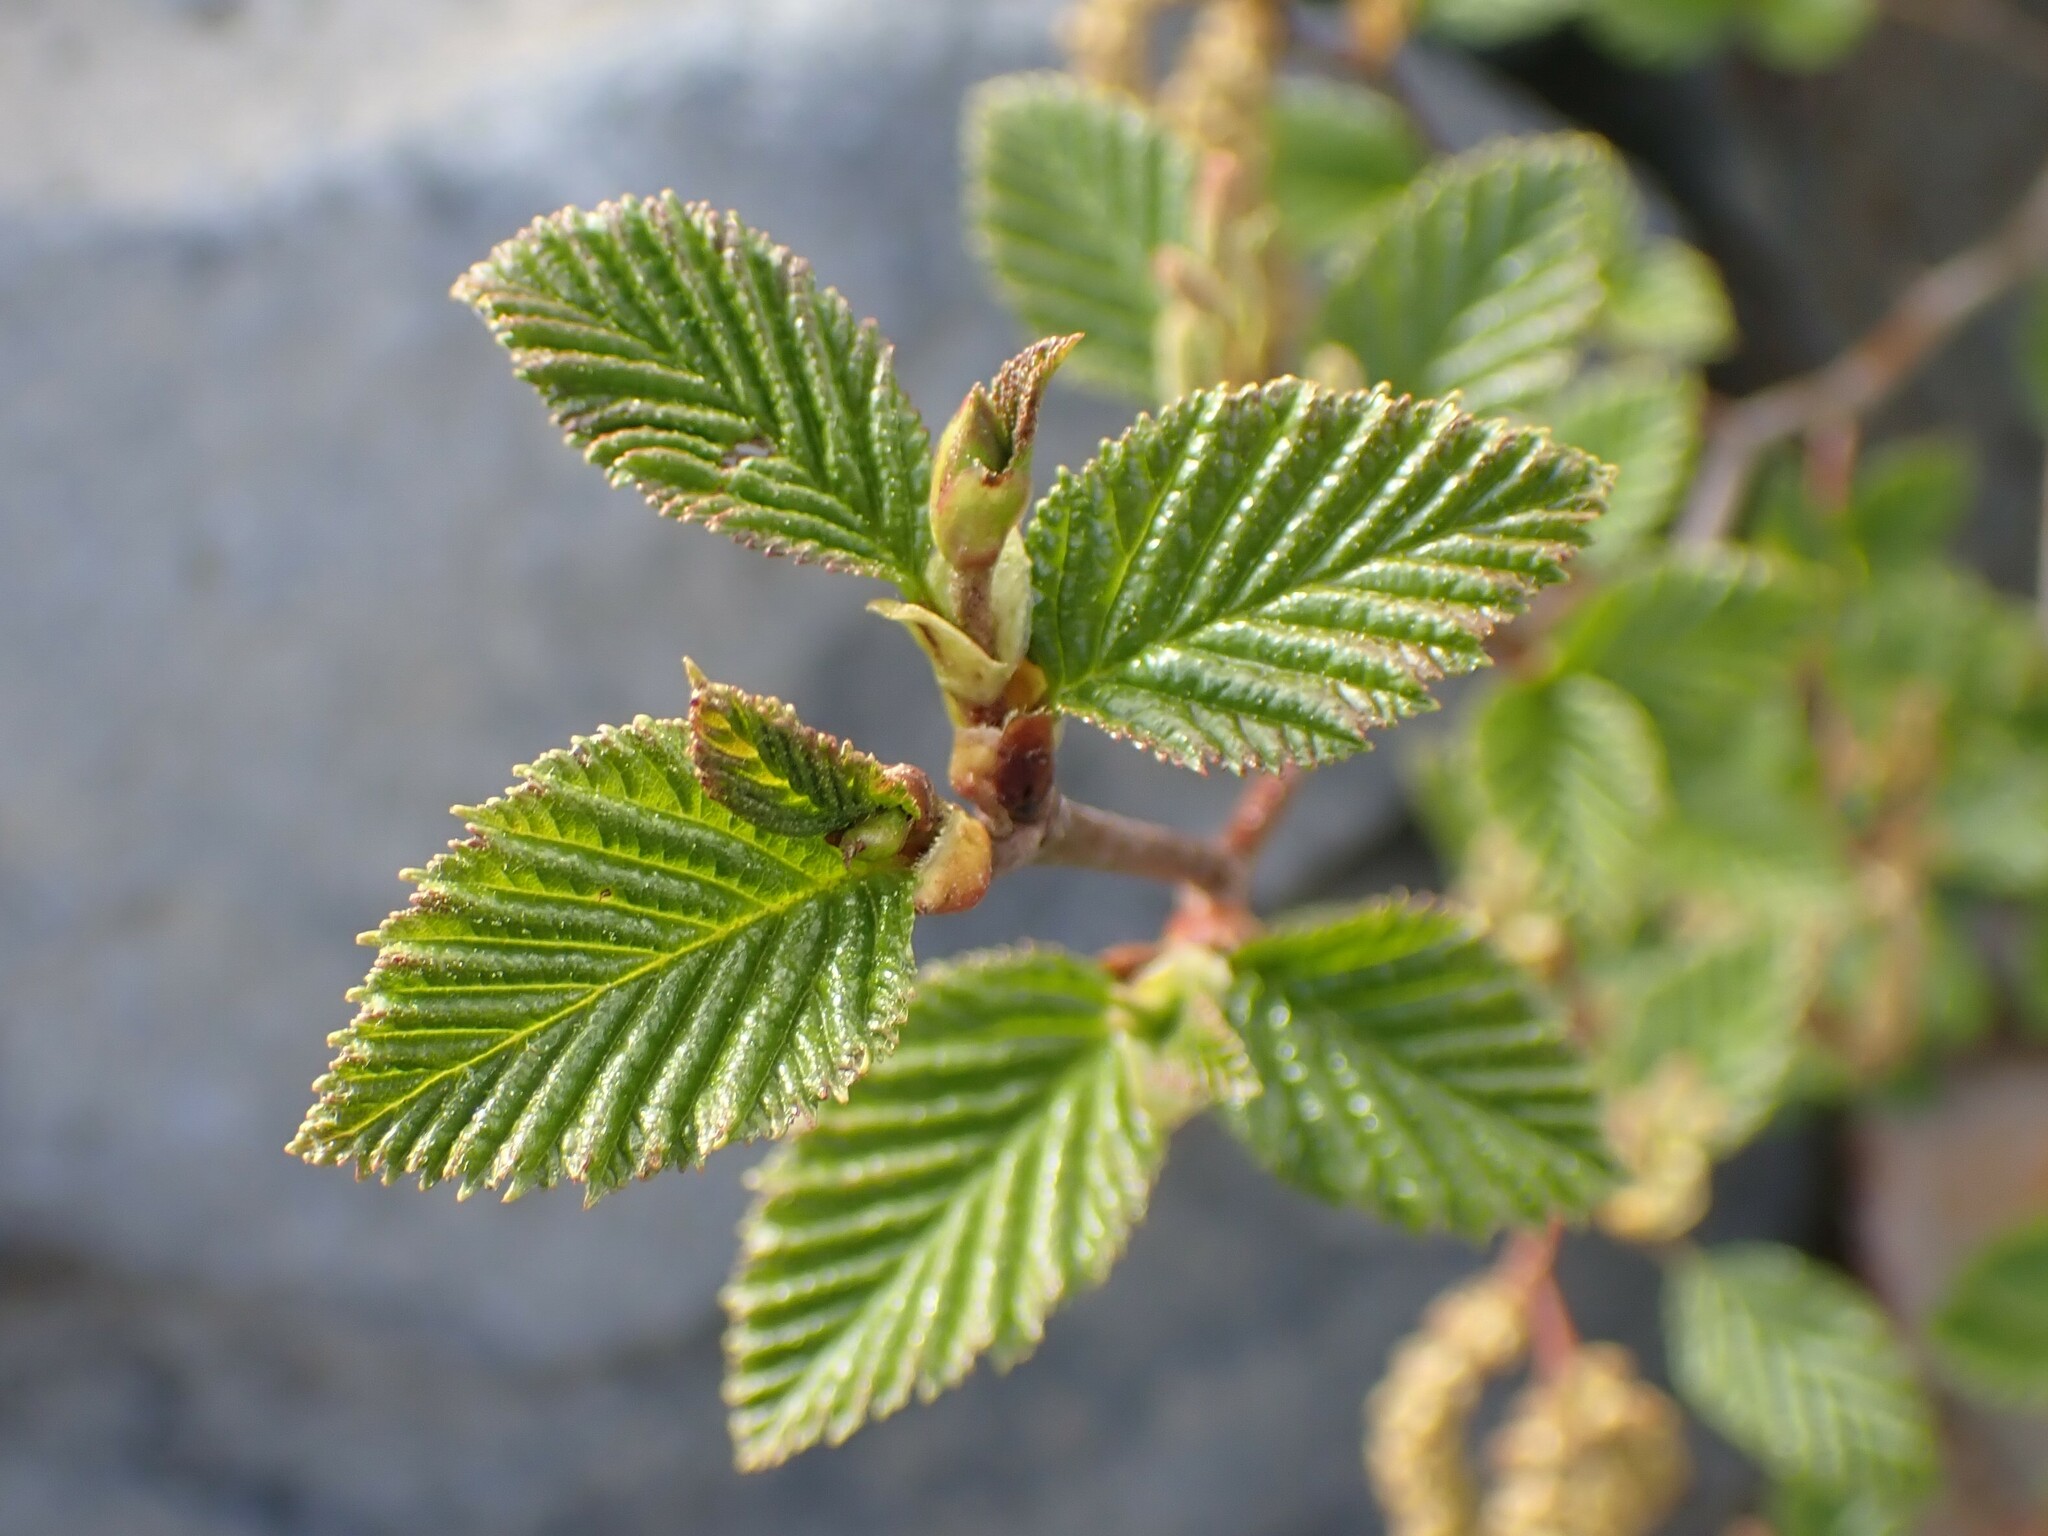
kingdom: Plantae
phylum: Tracheophyta
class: Magnoliopsida
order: Fagales
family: Betulaceae
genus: Alnus
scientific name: Alnus alnobetula
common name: Green alder
